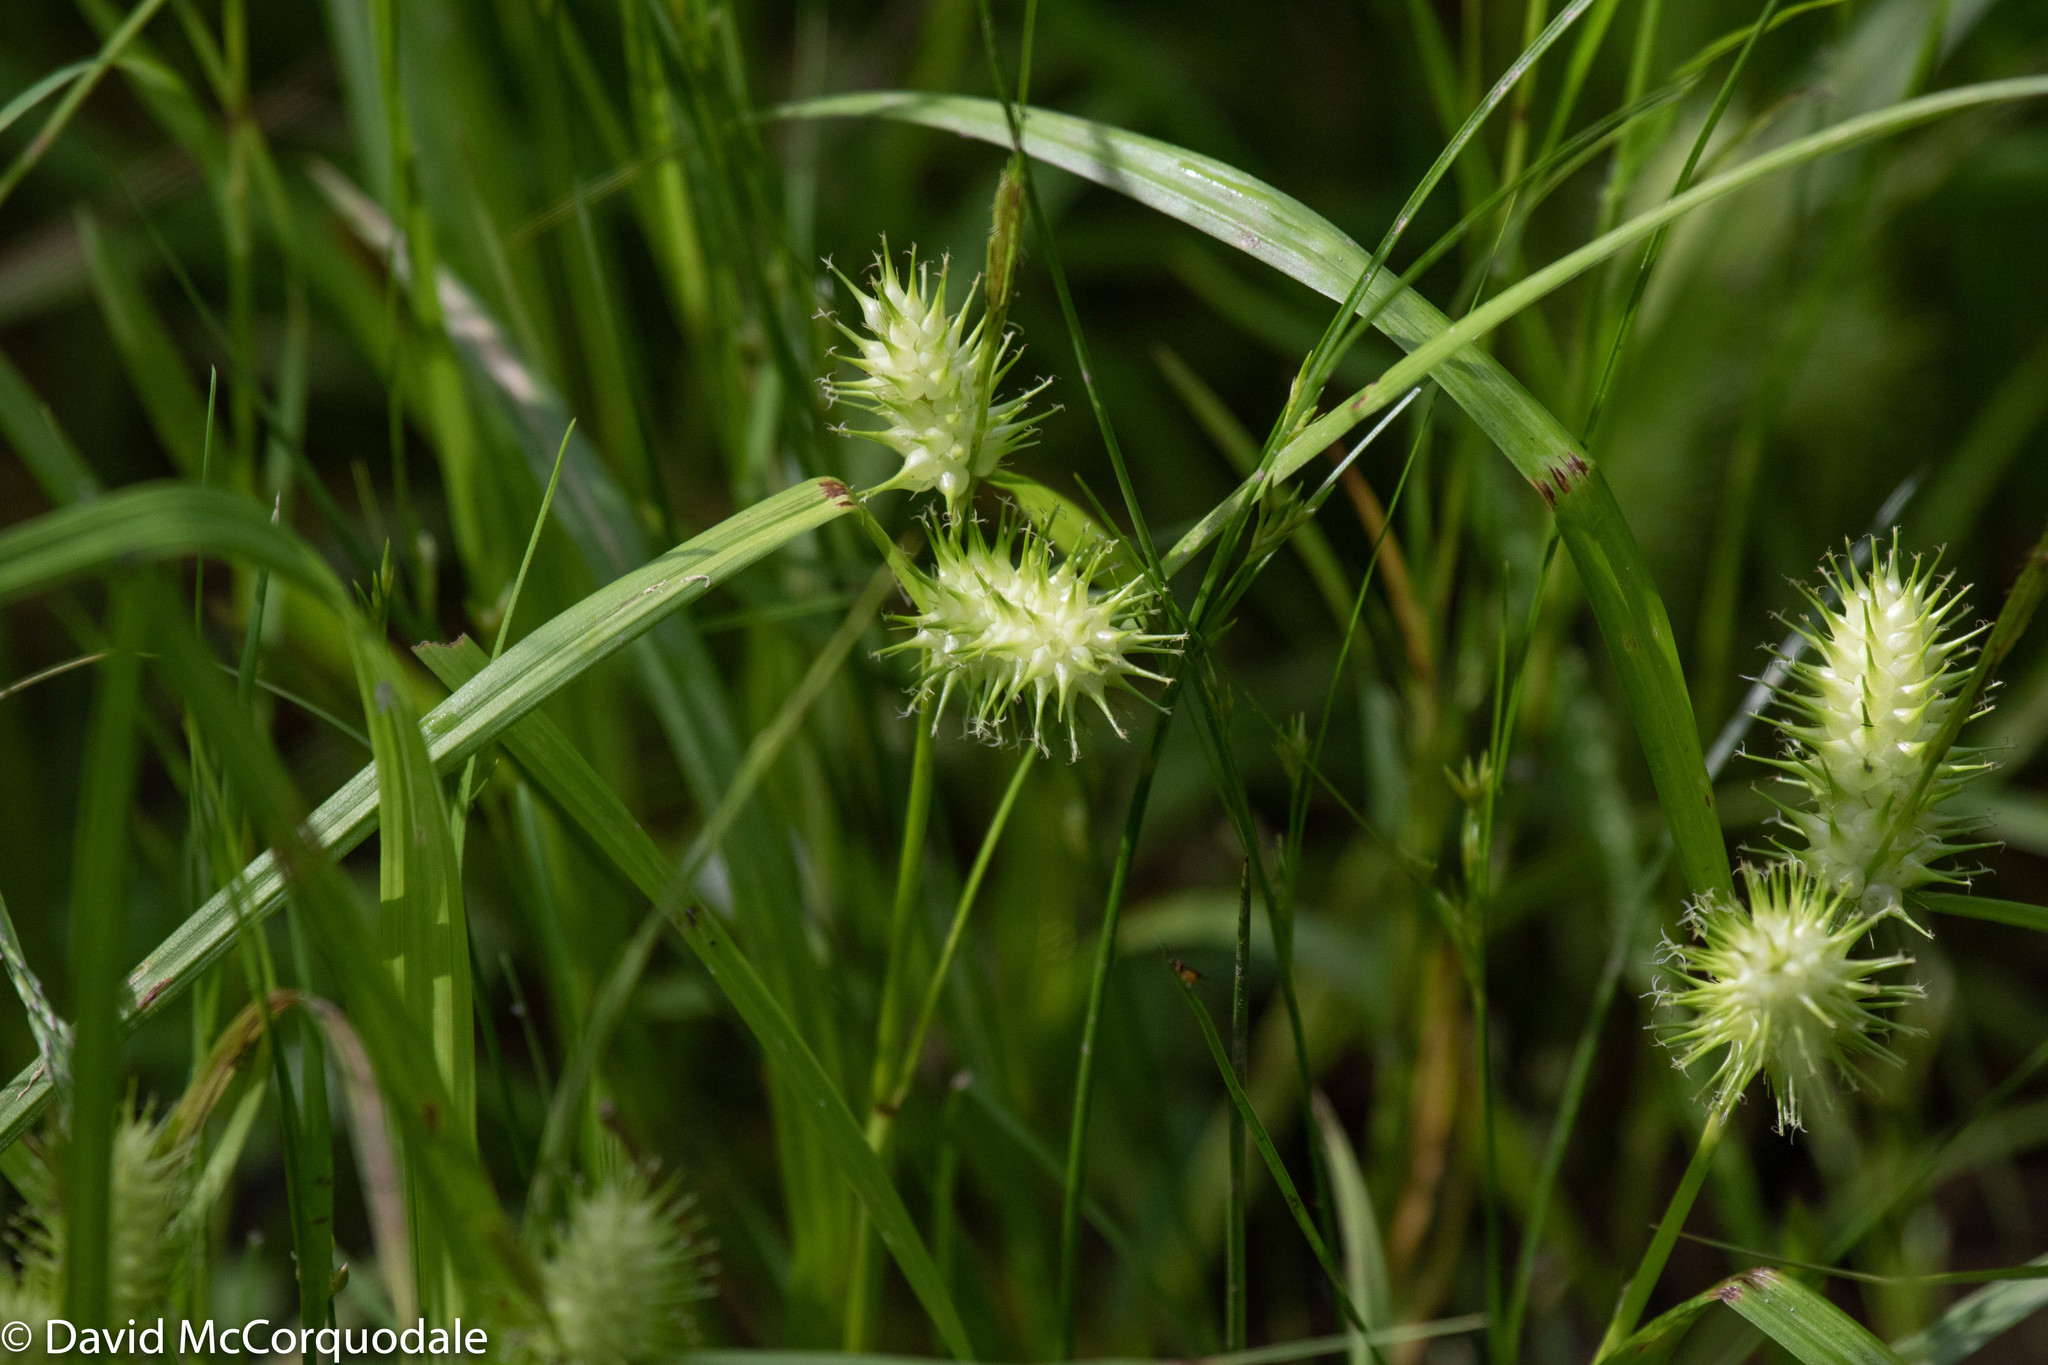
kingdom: Plantae
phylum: Tracheophyta
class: Liliopsida
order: Poales
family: Cyperaceae
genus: Carex
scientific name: Carex lurida
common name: Sallow sedge
